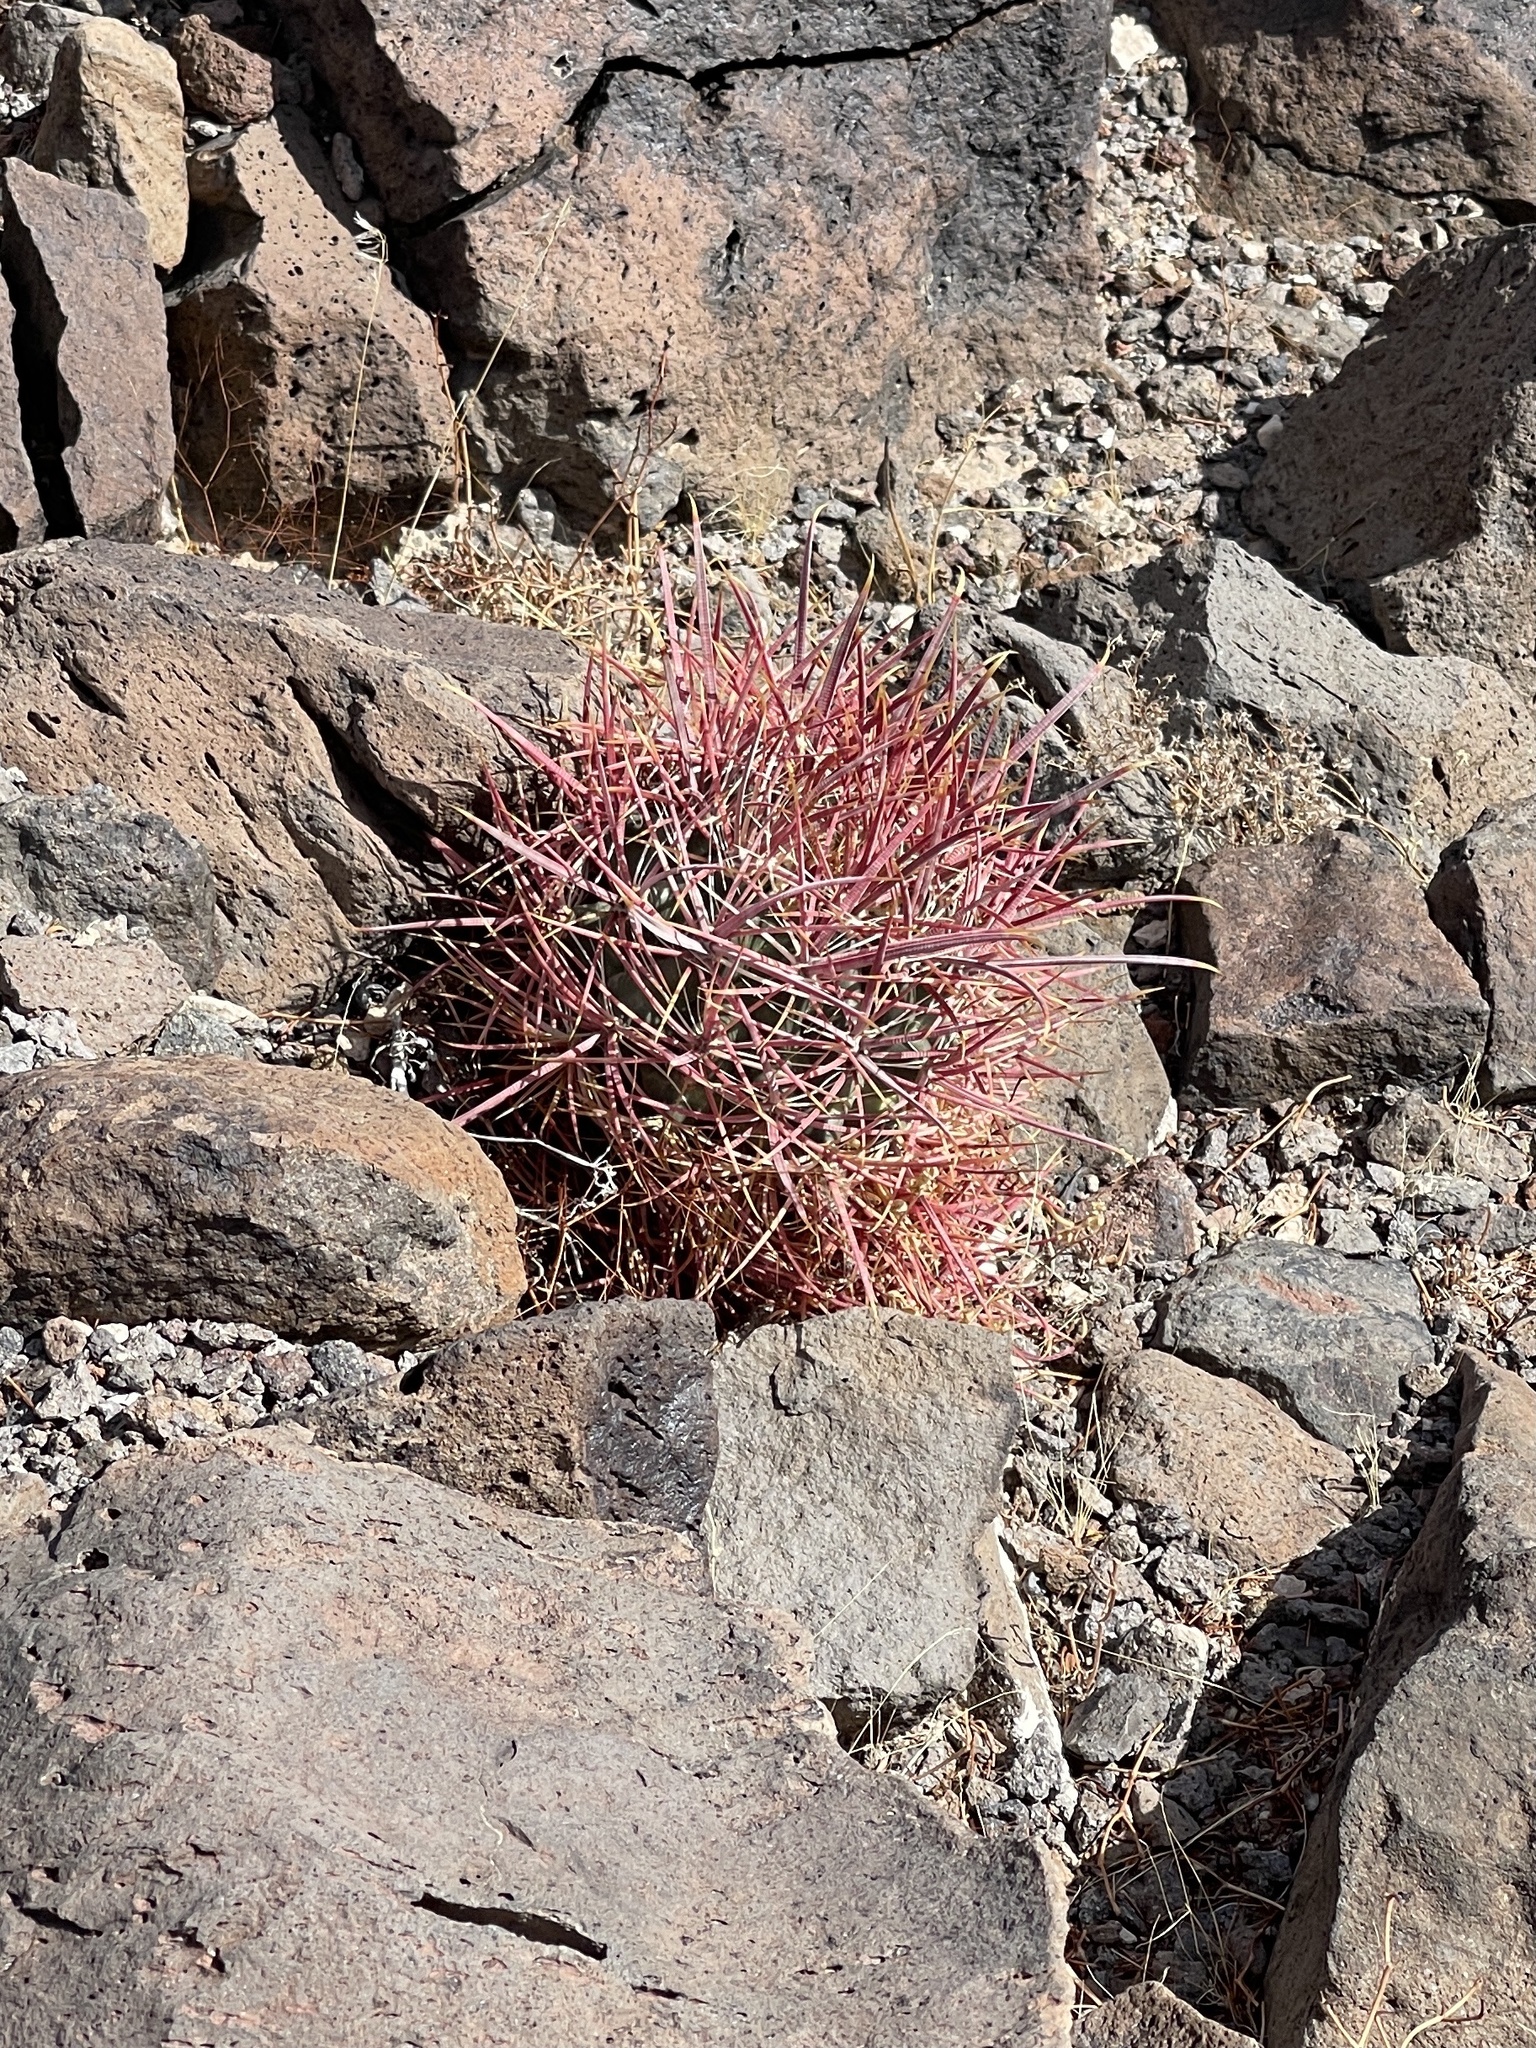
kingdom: Plantae
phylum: Tracheophyta
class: Magnoliopsida
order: Caryophyllales
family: Cactaceae
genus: Ferocactus
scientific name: Ferocactus cylindraceus
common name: California barrel cactus
